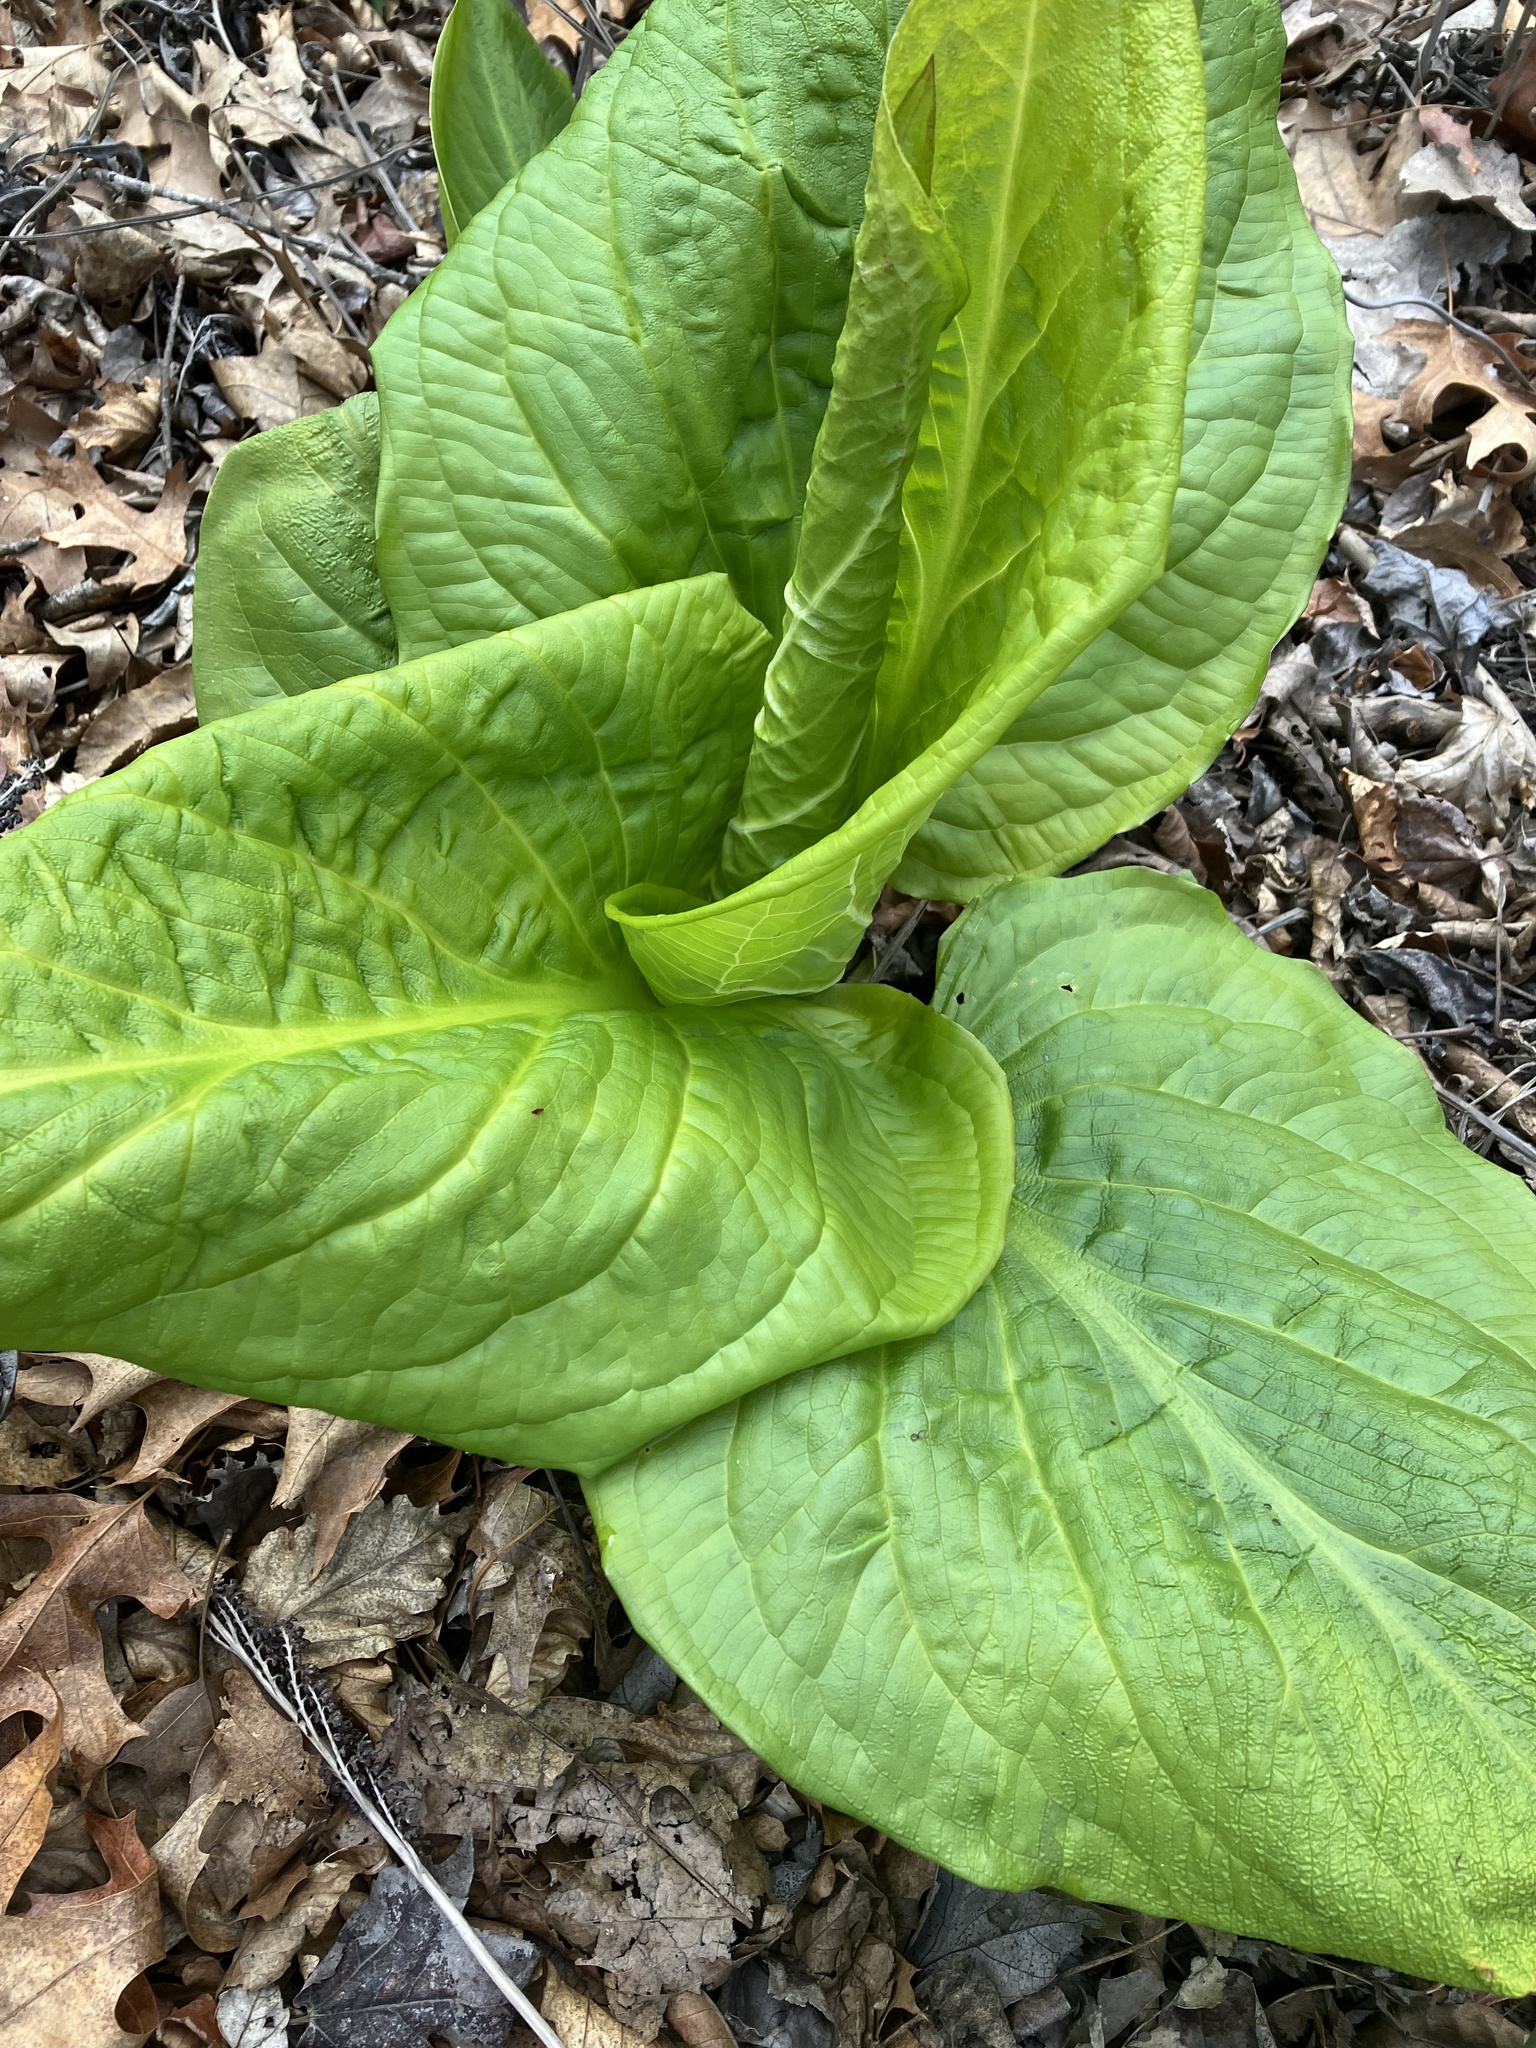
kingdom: Plantae
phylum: Tracheophyta
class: Liliopsida
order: Alismatales
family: Araceae
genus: Symplocarpus
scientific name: Symplocarpus foetidus
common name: Eastern skunk cabbage
